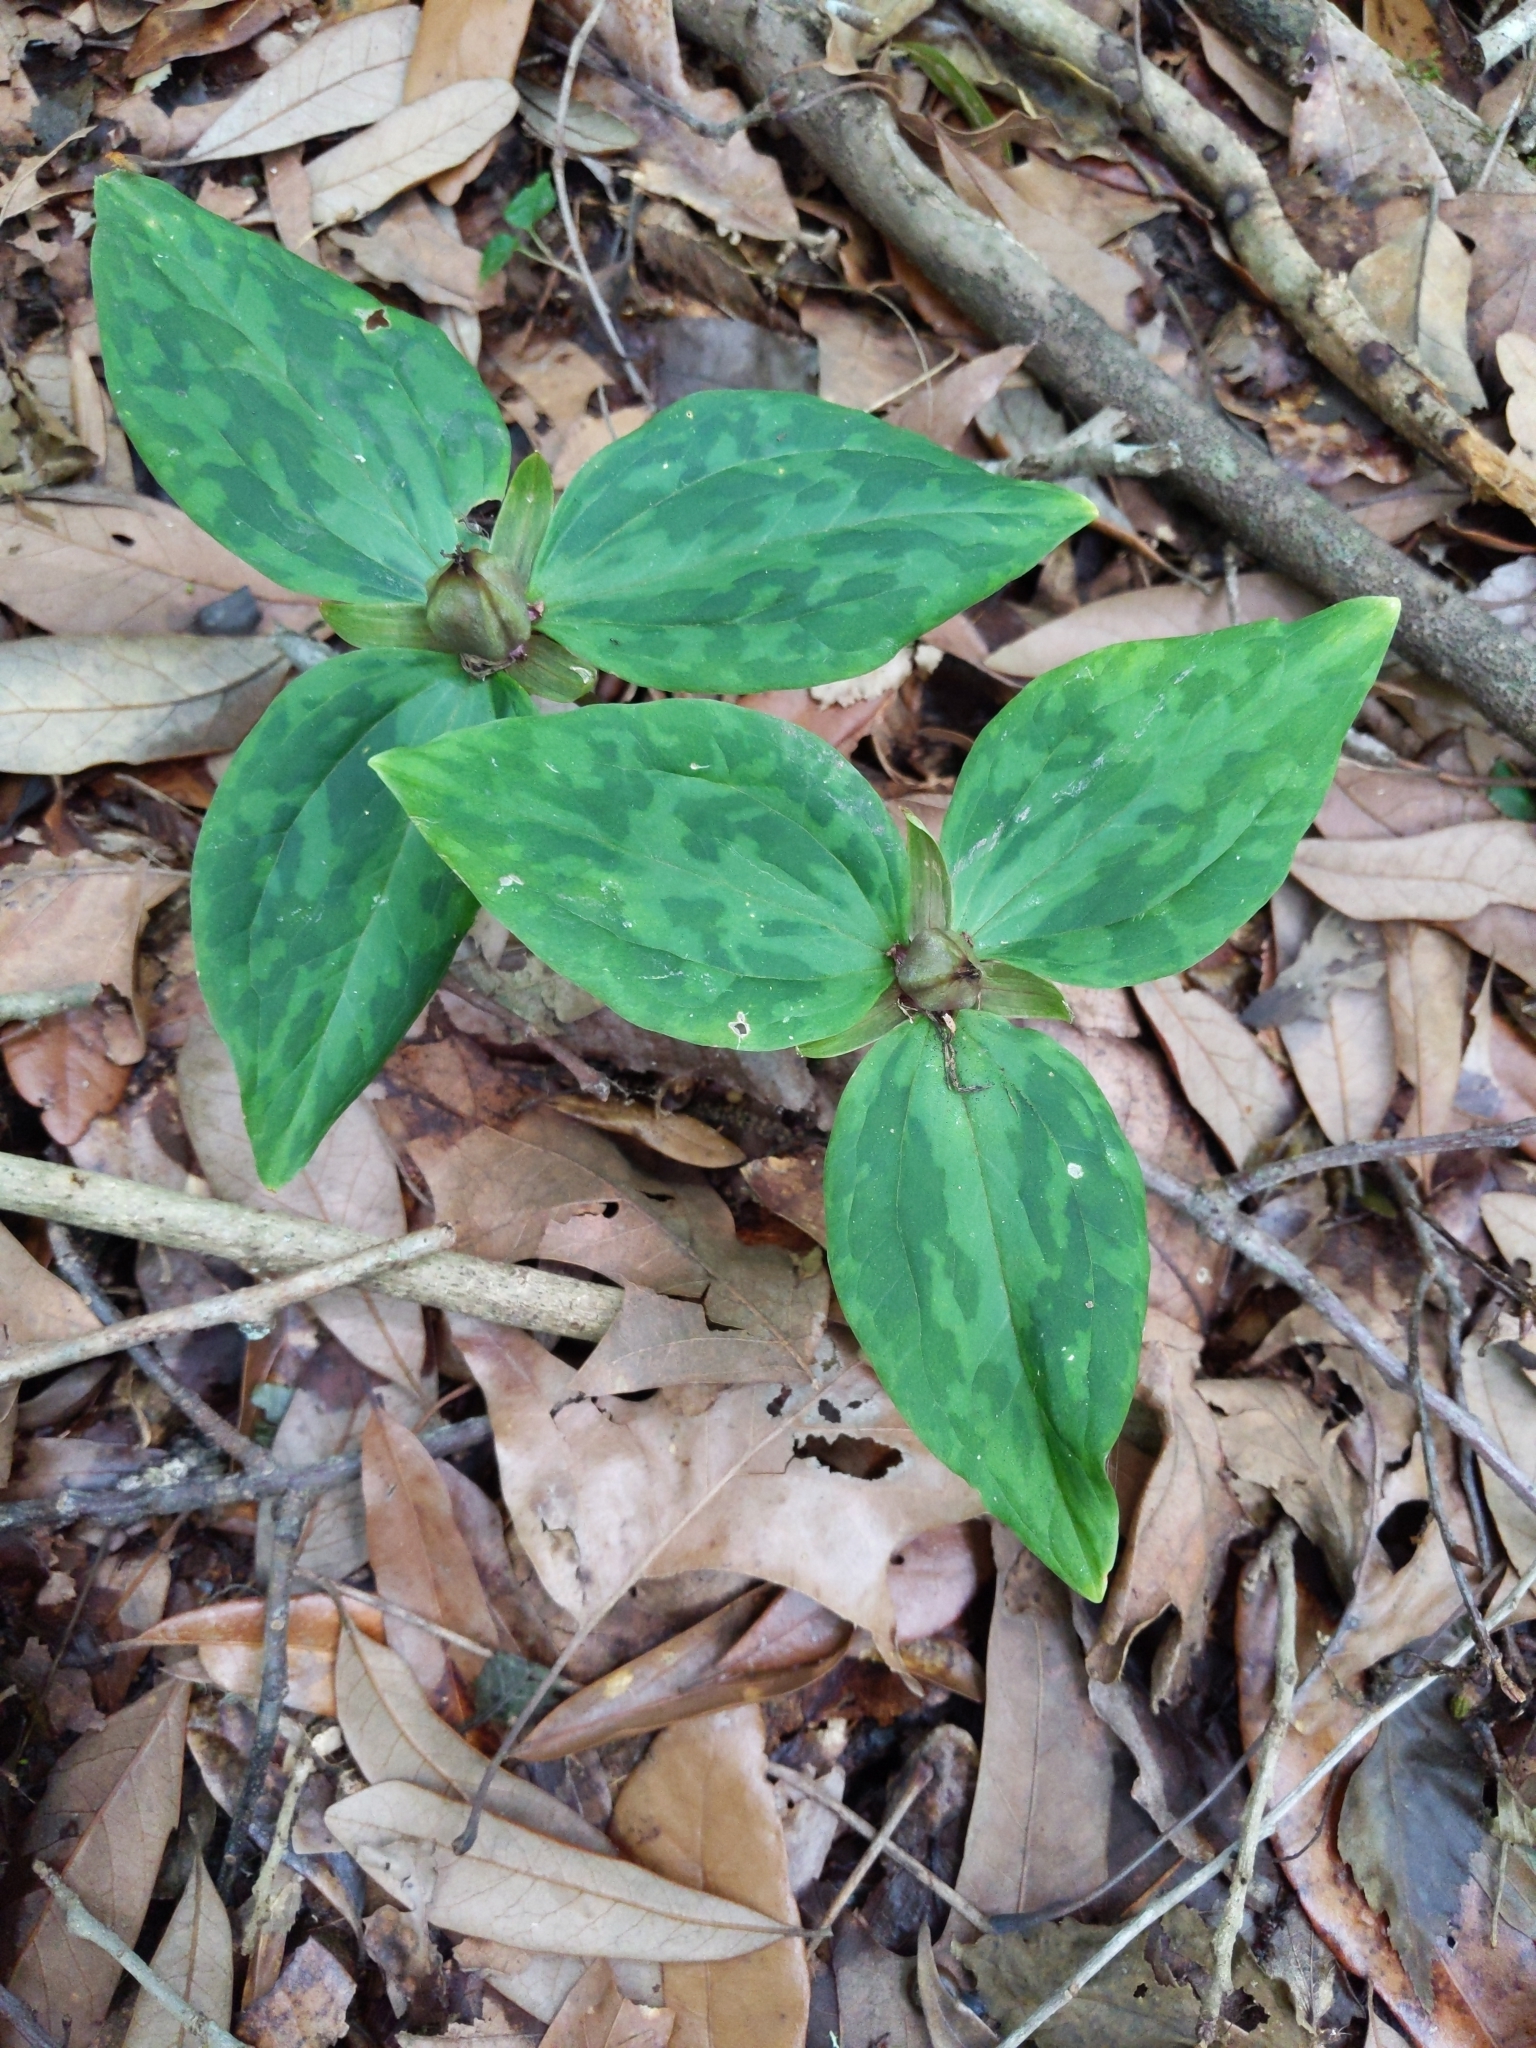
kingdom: Plantae
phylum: Tracheophyta
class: Liliopsida
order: Liliales
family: Melanthiaceae
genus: Trillium
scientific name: Trillium foetidissimum
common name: Mississippi river trillium
